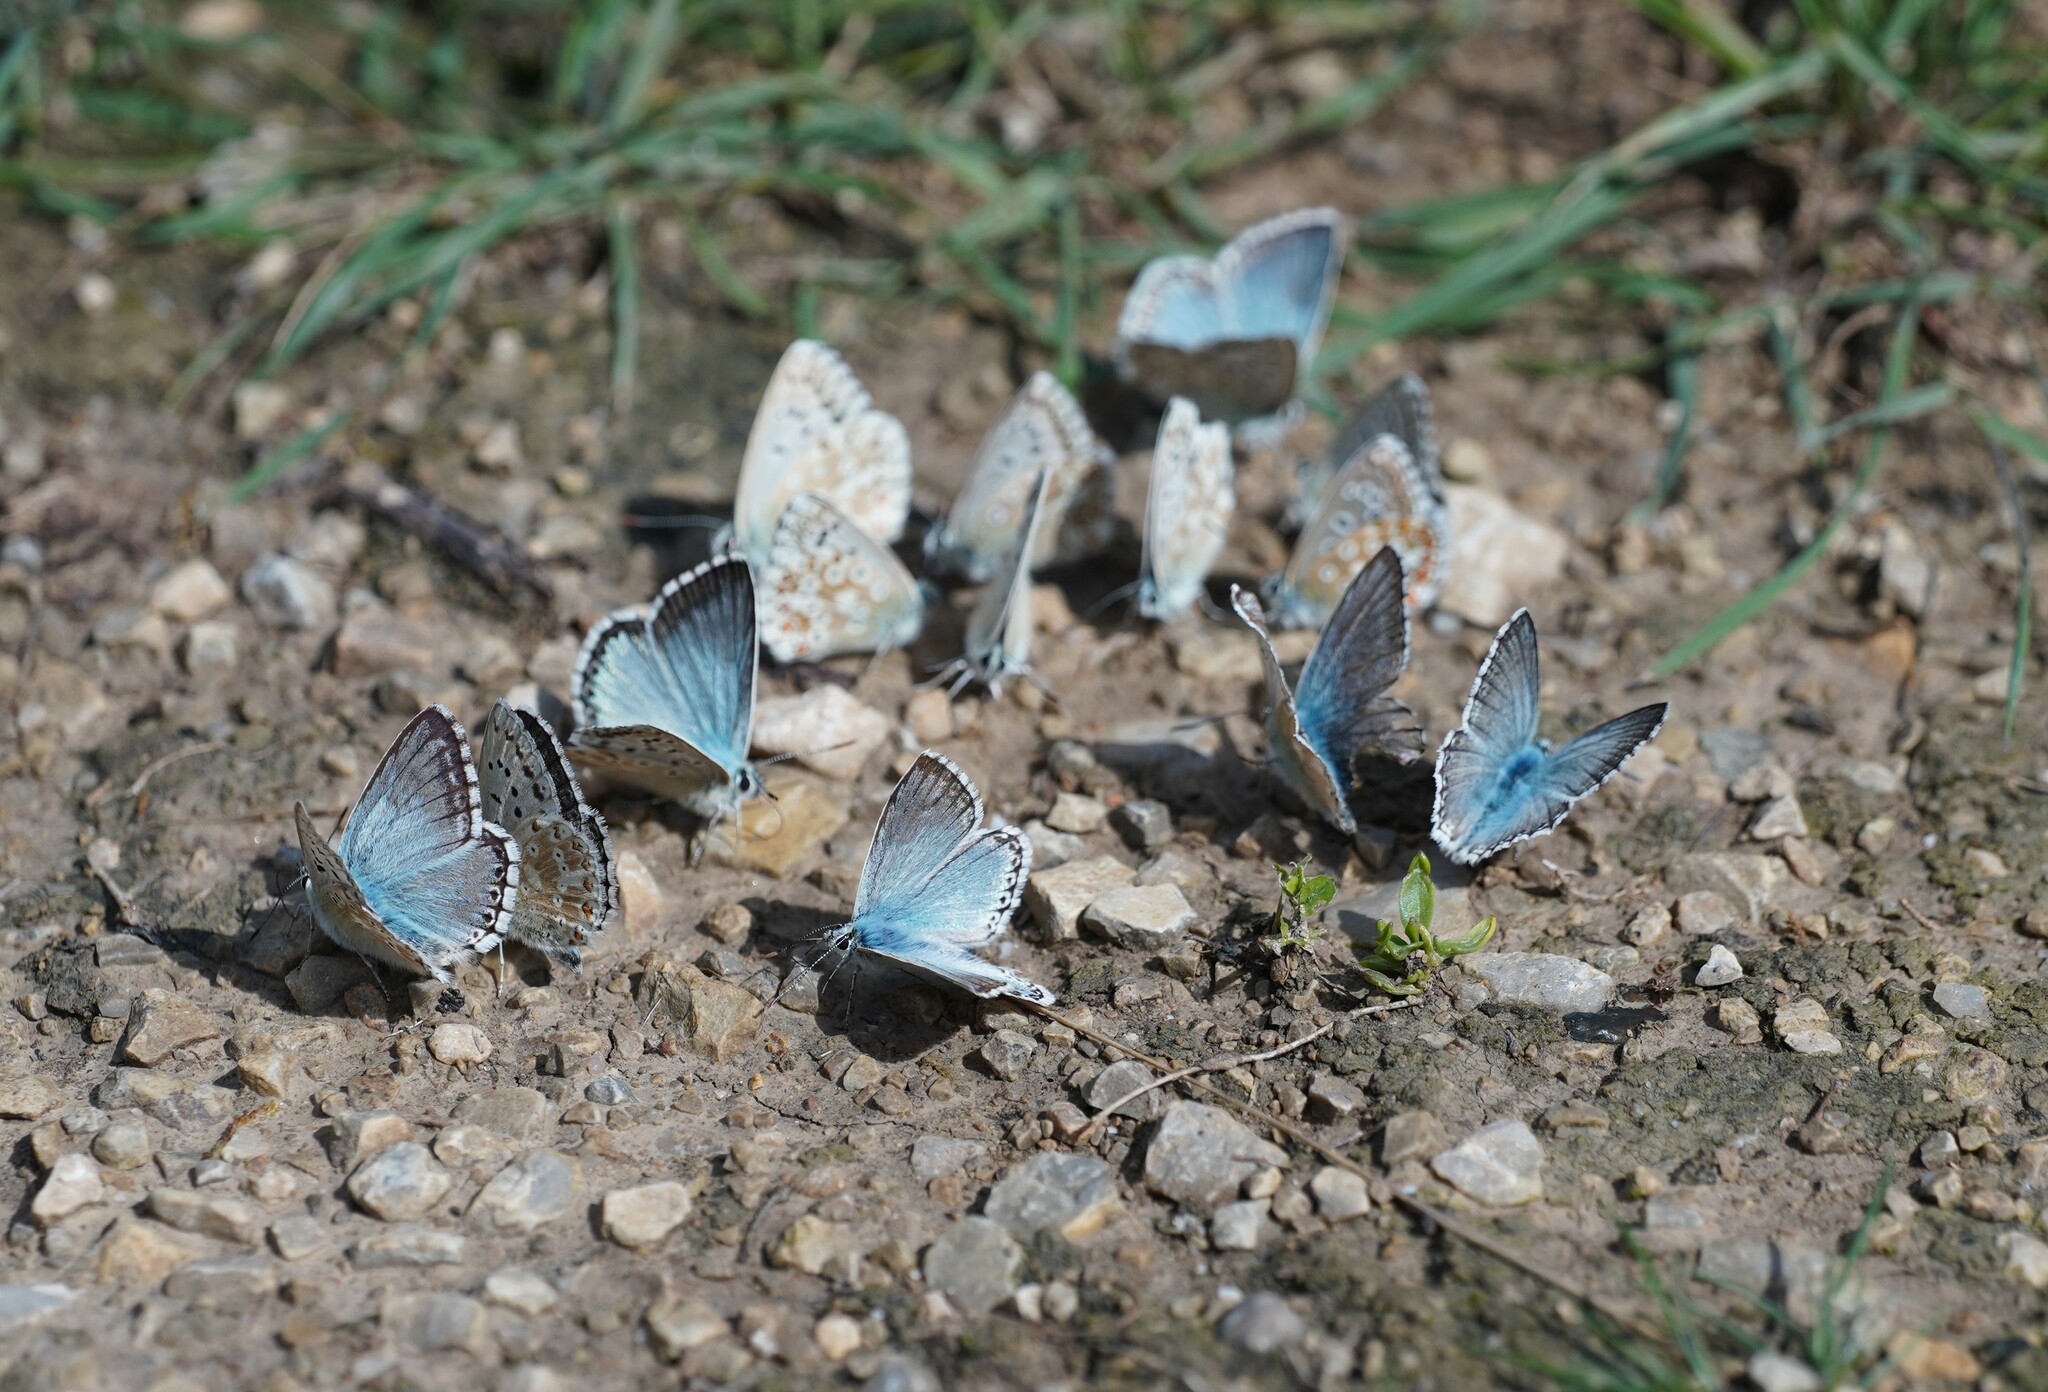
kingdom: Animalia
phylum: Arthropoda
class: Insecta
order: Lepidoptera
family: Lycaenidae
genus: Lysandra
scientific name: Lysandra coridon
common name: Chalkhill blue
